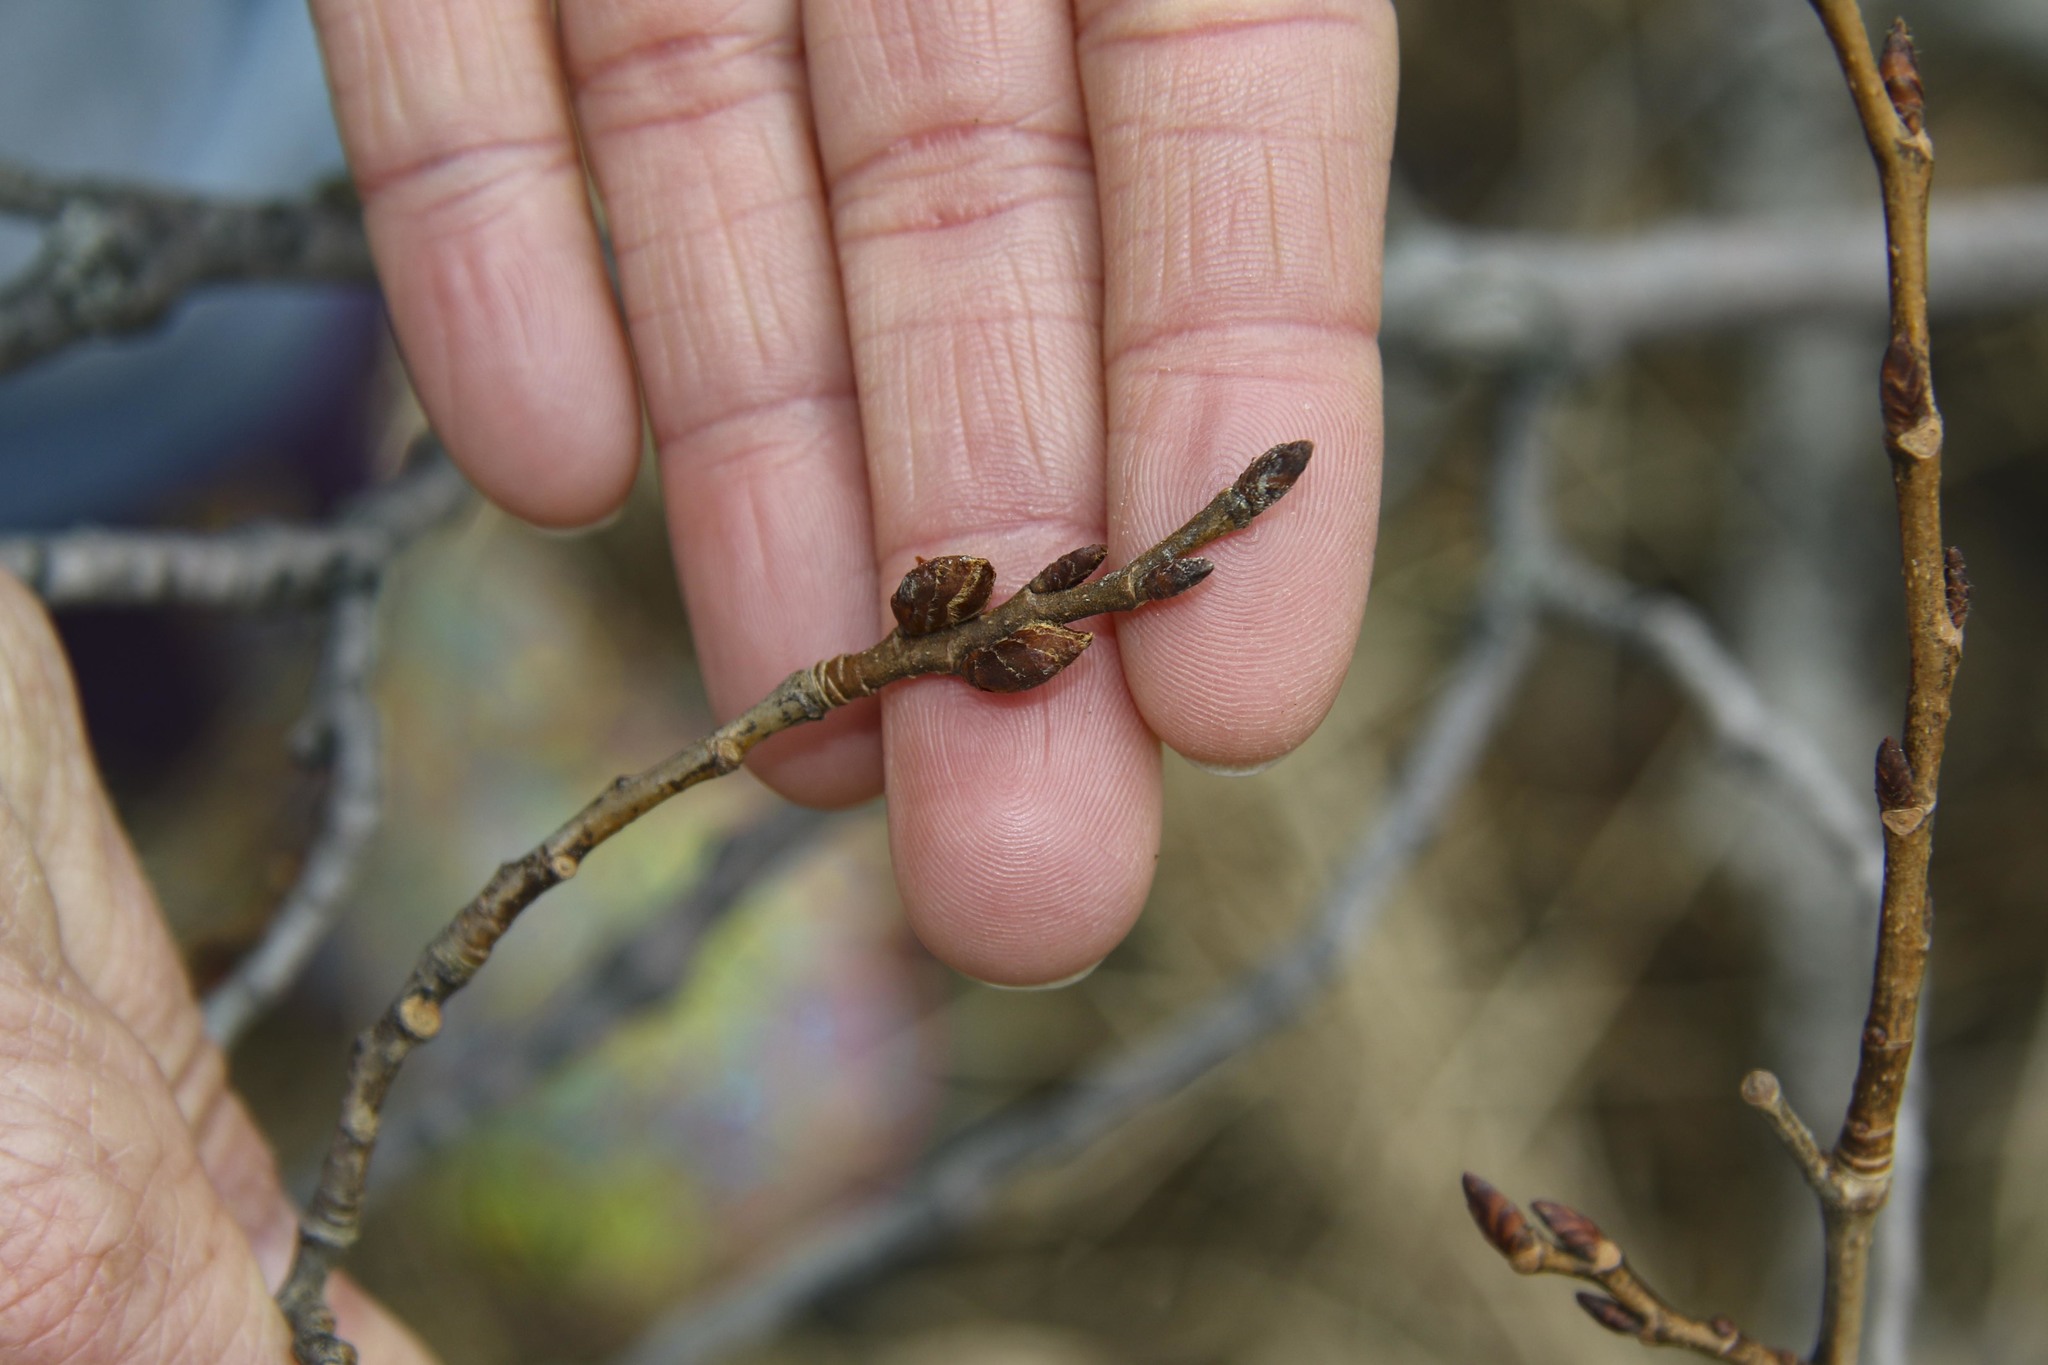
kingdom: Plantae
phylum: Tracheophyta
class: Magnoliopsida
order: Rosales
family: Ulmaceae
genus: Ulmus
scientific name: Ulmus americana
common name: American elm
